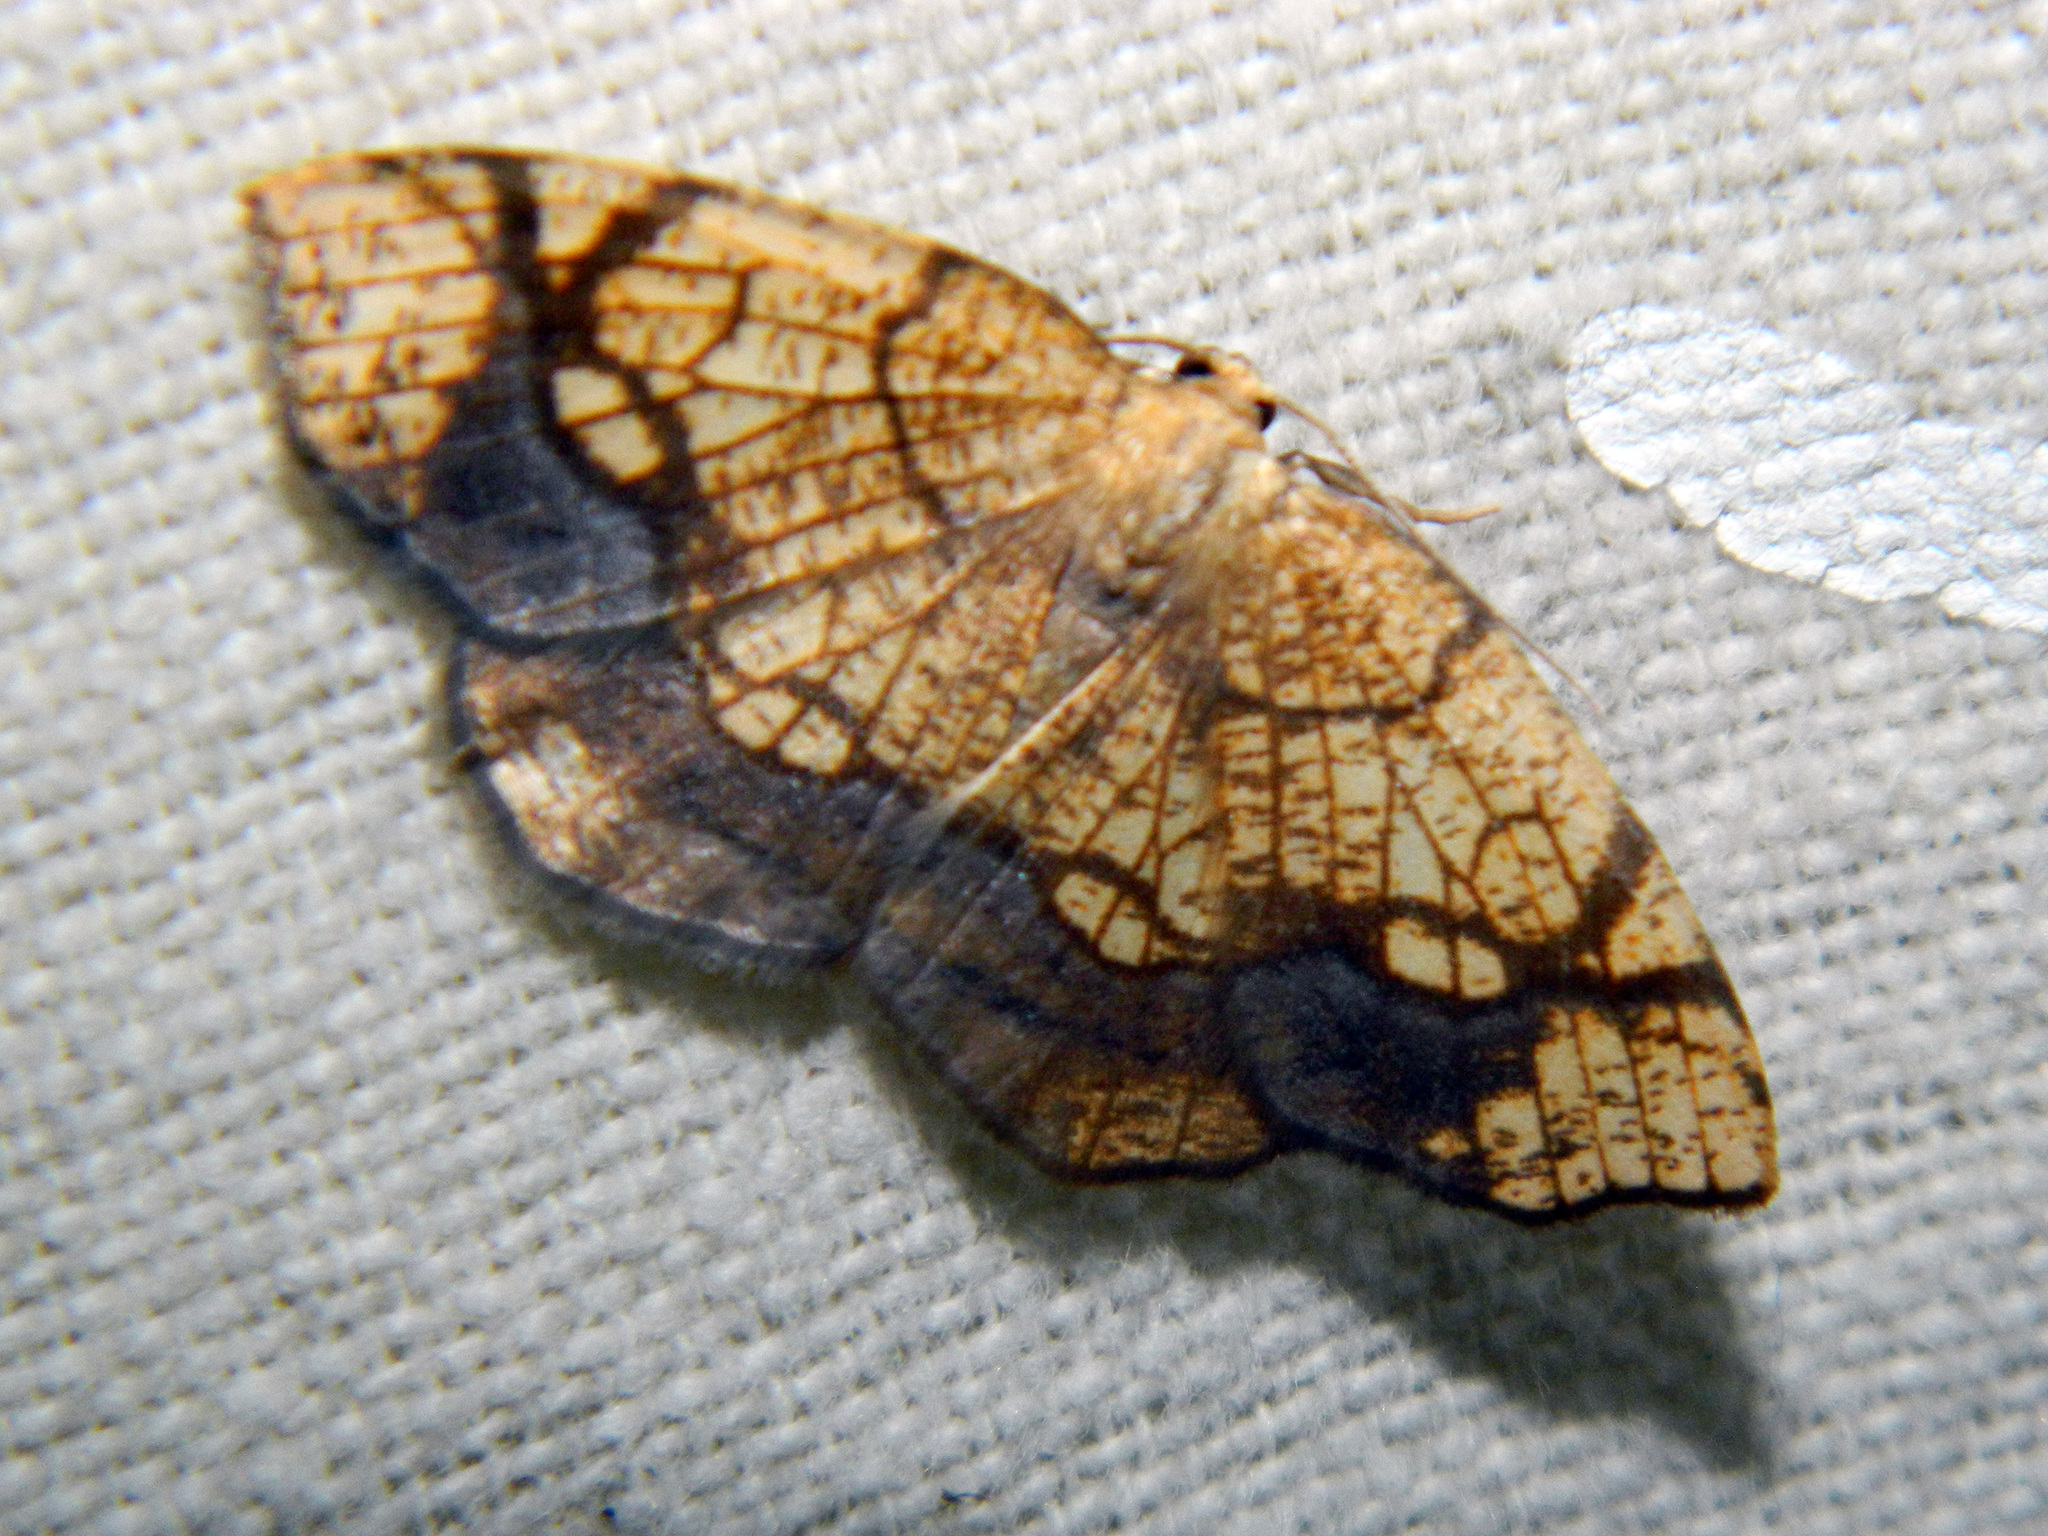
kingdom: Animalia
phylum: Arthropoda
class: Insecta
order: Lepidoptera
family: Geometridae
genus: Nematocampa
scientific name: Nematocampa resistaria
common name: Horned spanworm moth
